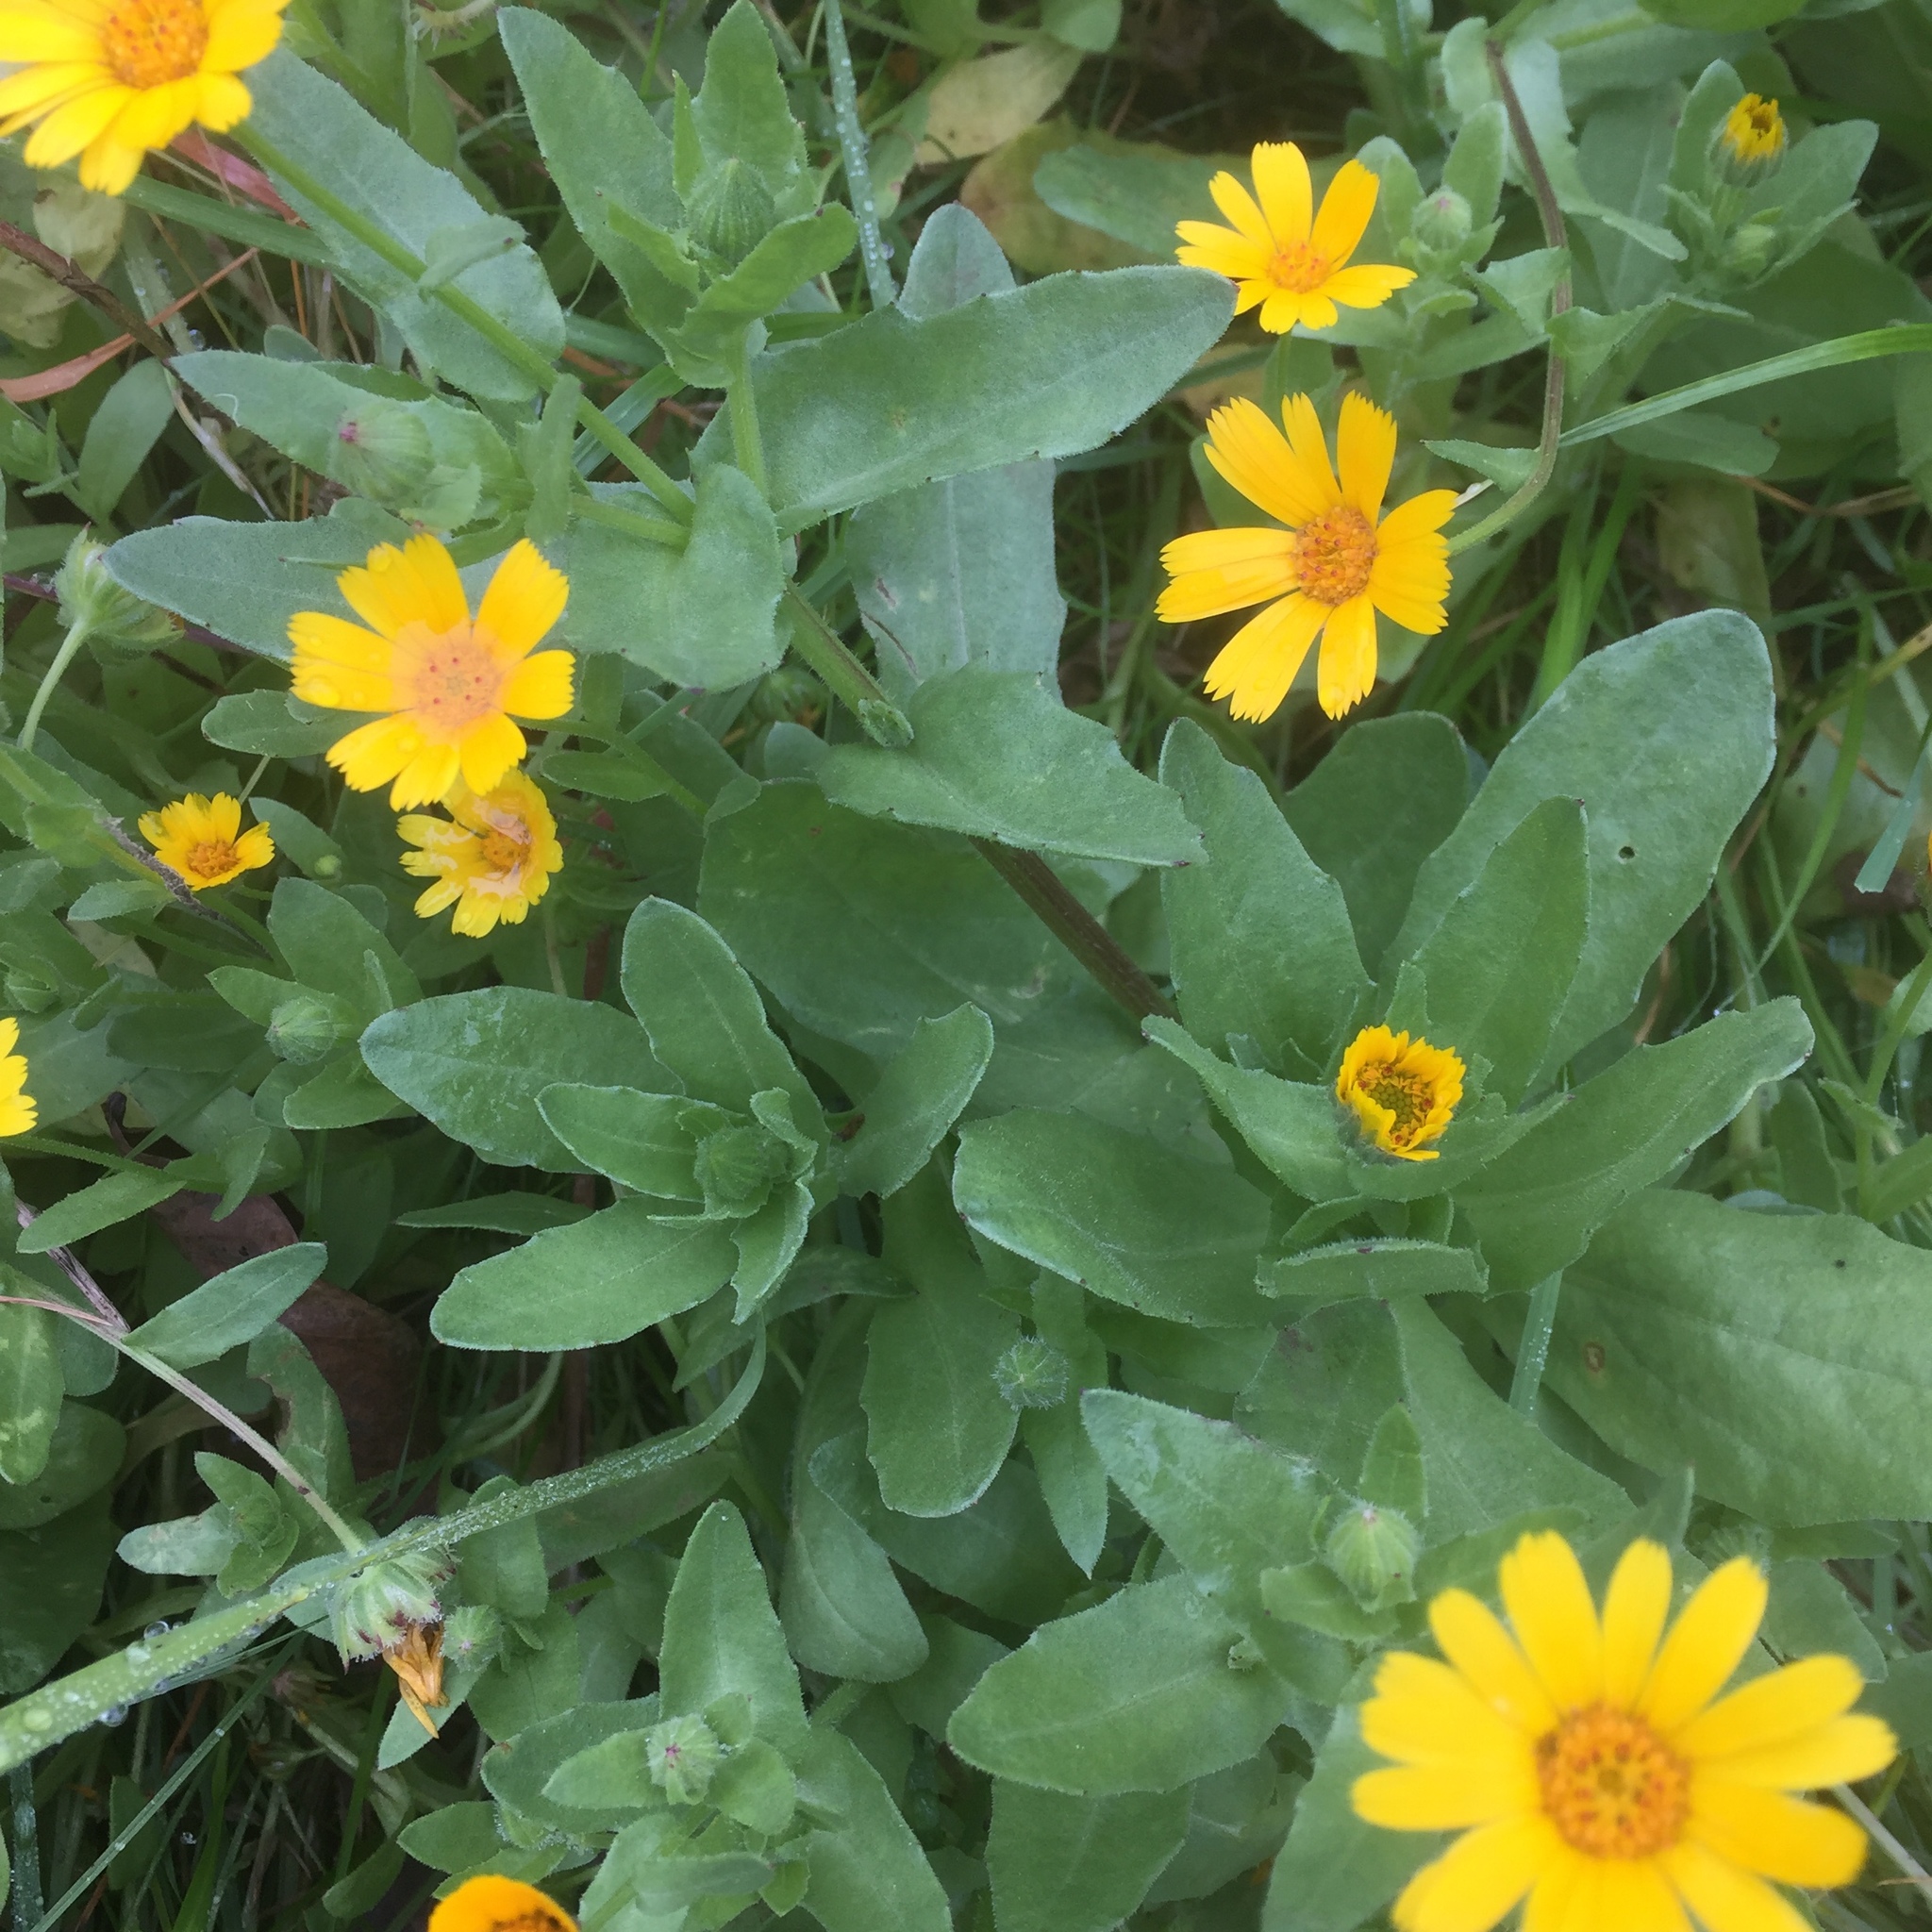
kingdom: Plantae
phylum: Tracheophyta
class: Magnoliopsida
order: Asterales
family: Asteraceae
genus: Calendula
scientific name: Calendula arvensis
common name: Field marigold
